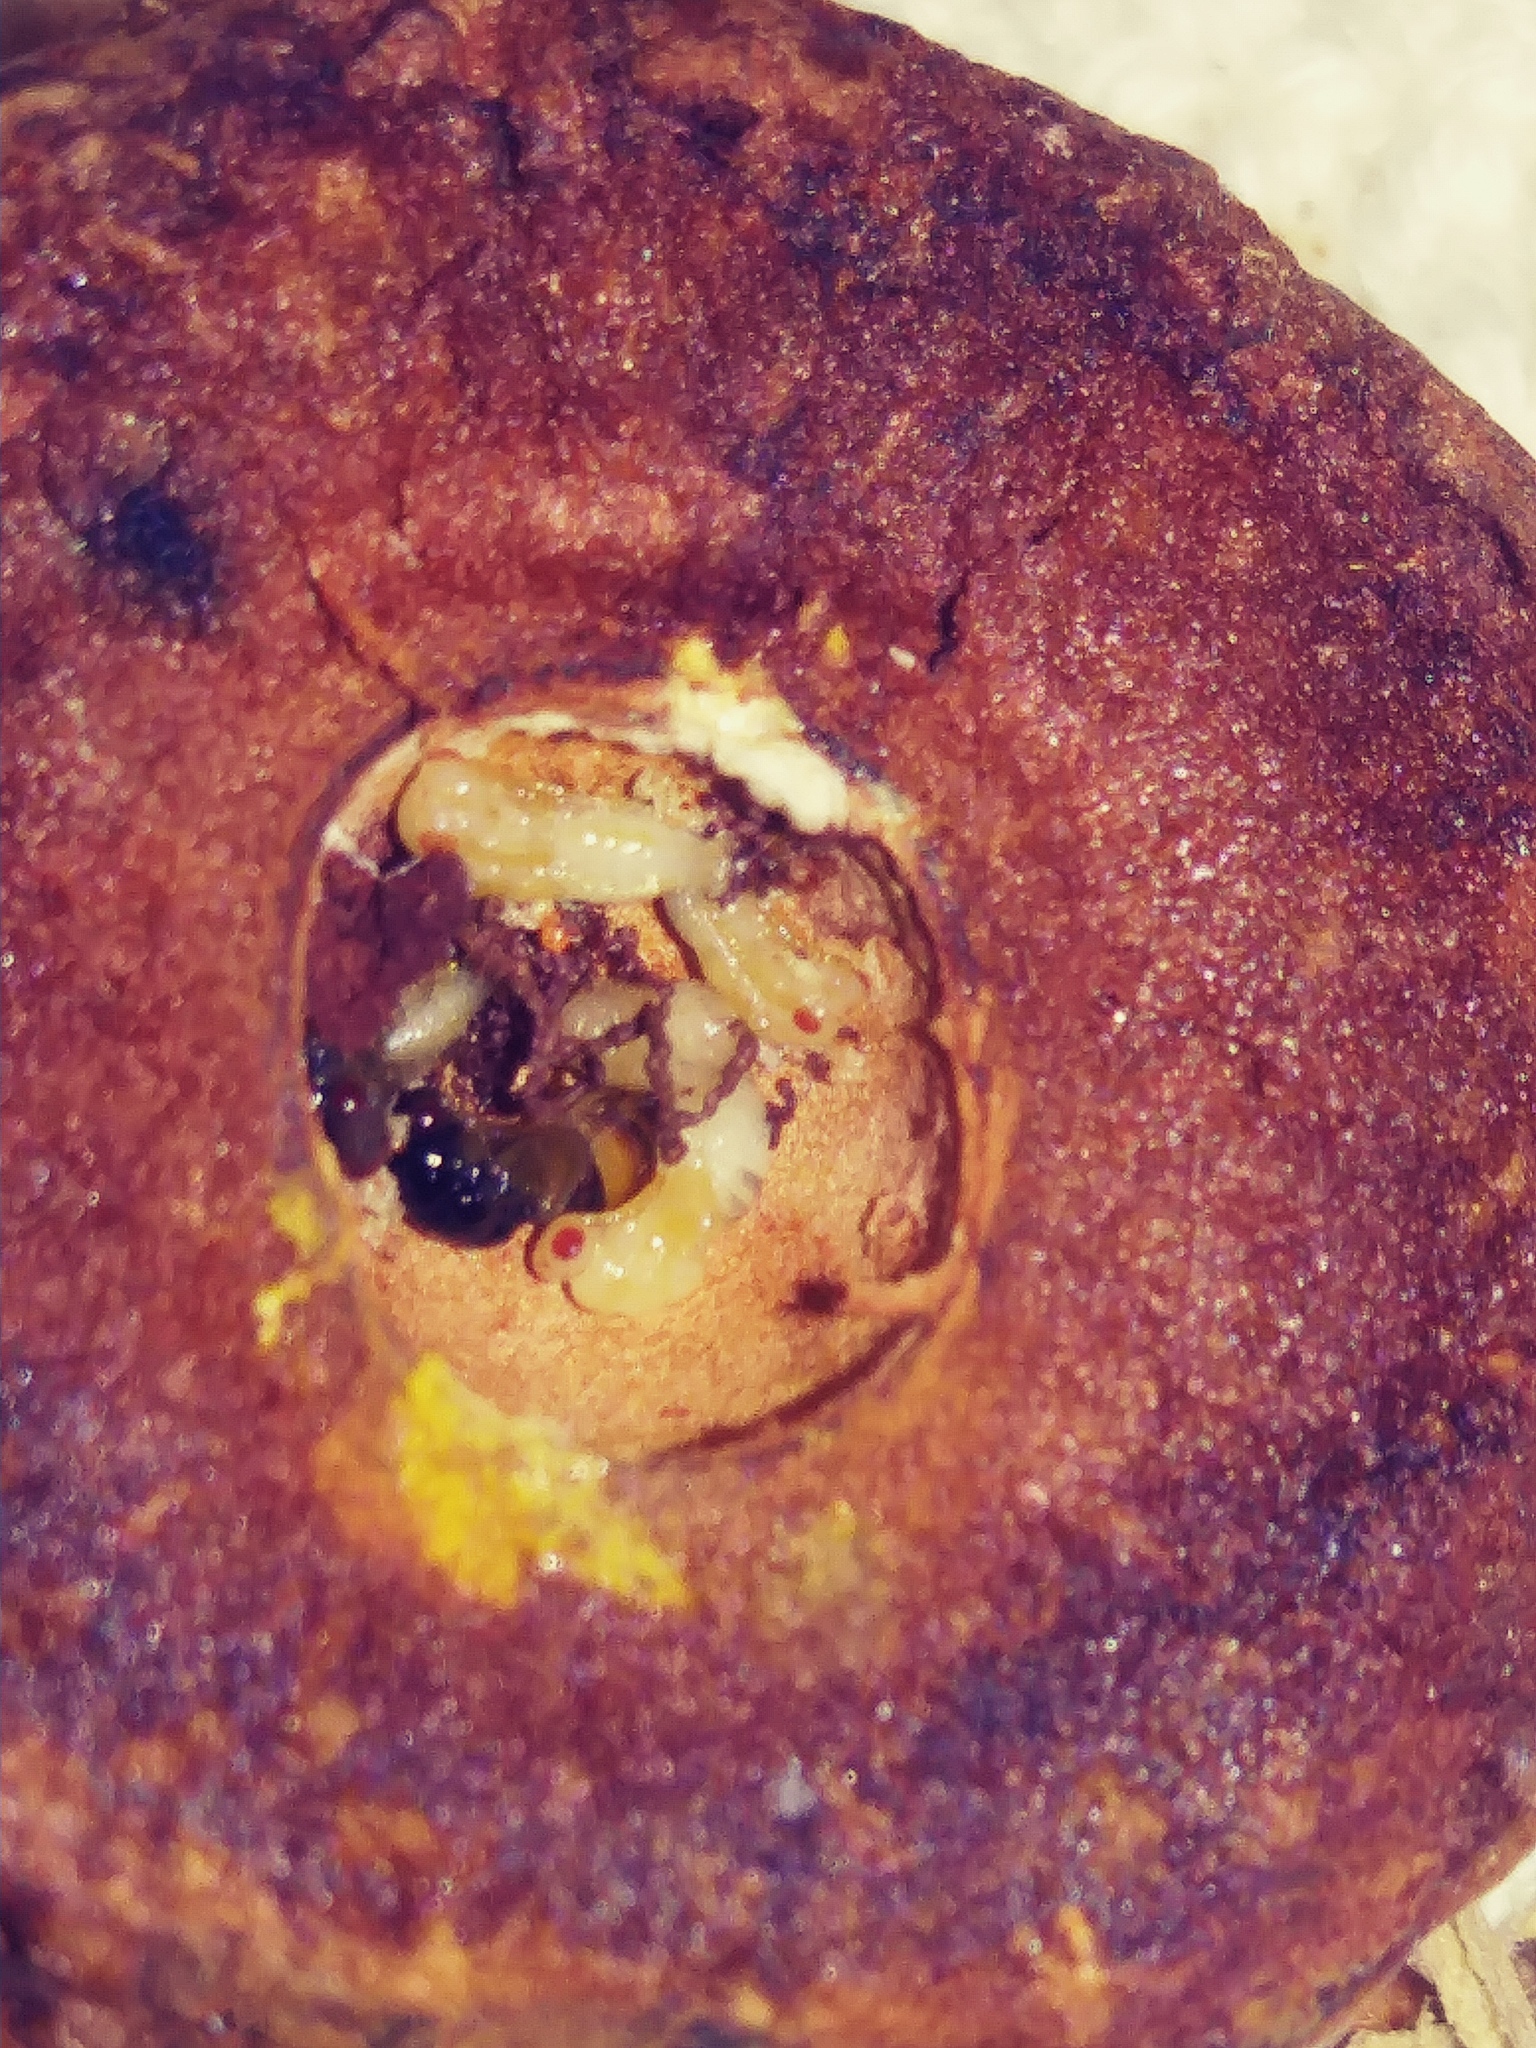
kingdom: Animalia
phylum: Arthropoda
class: Insecta
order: Hymenoptera
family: Cynipidae
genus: Amphibolips
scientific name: Amphibolips
